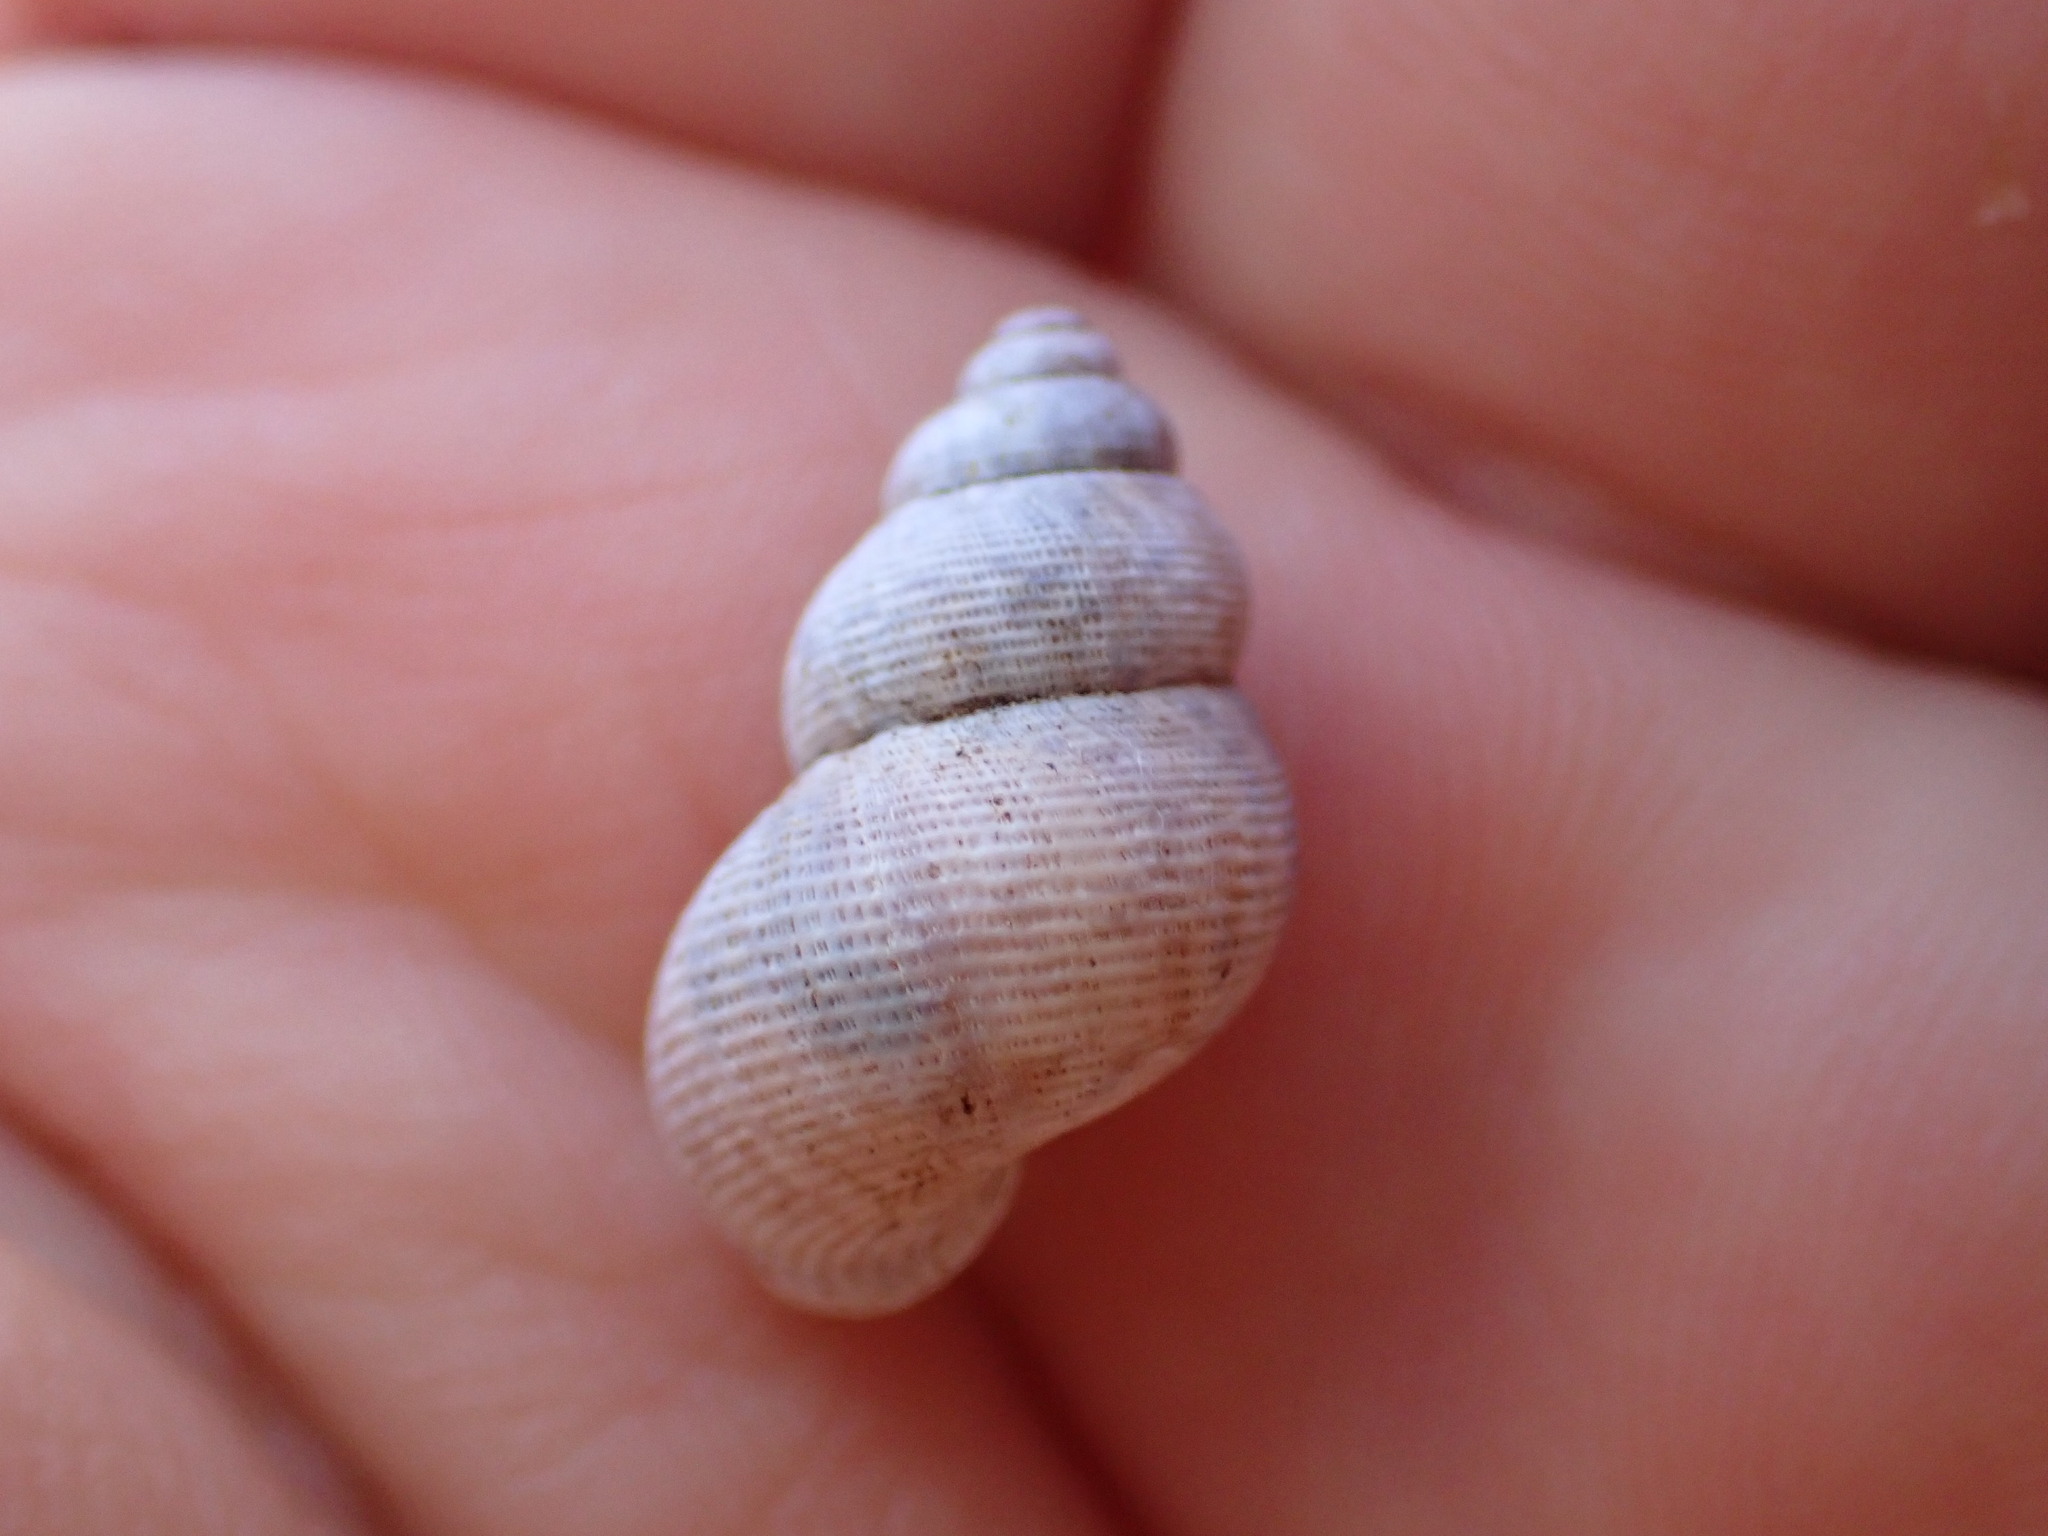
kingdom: Animalia
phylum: Mollusca
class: Gastropoda
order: Littorinimorpha
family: Pomatiidae
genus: Pomatias
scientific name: Pomatias elegans
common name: Red-mouthed snail
